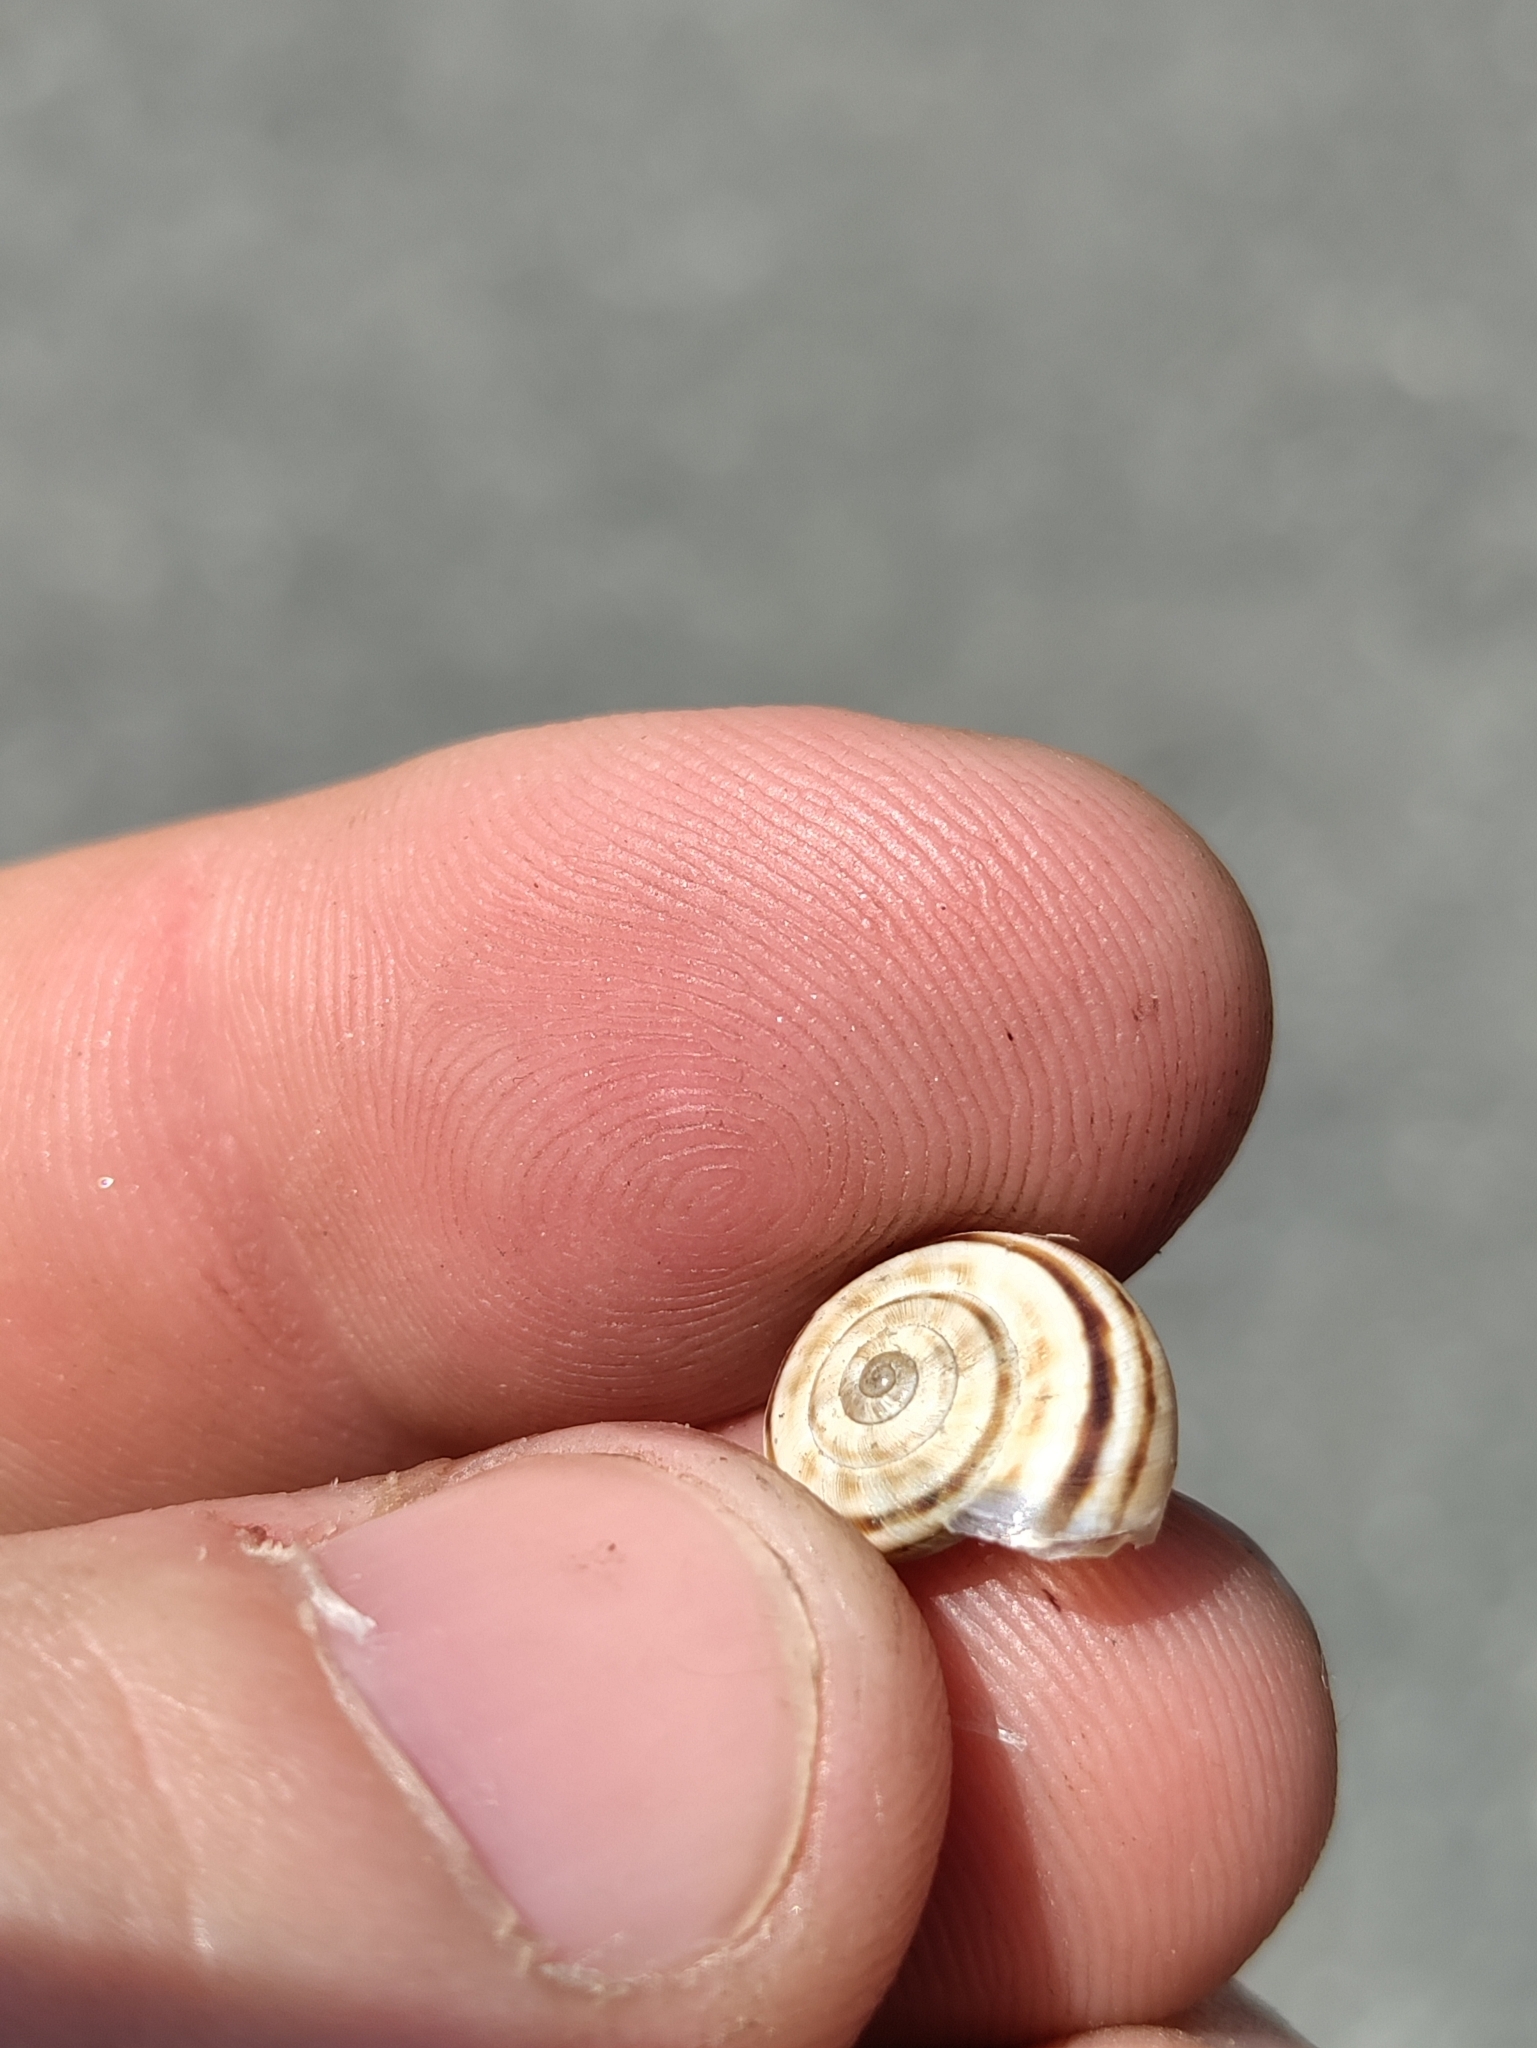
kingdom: Animalia
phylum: Mollusca
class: Gastropoda
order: Stylommatophora
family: Geomitridae
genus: Xerolenta
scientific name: Xerolenta obvia
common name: White heath snail
